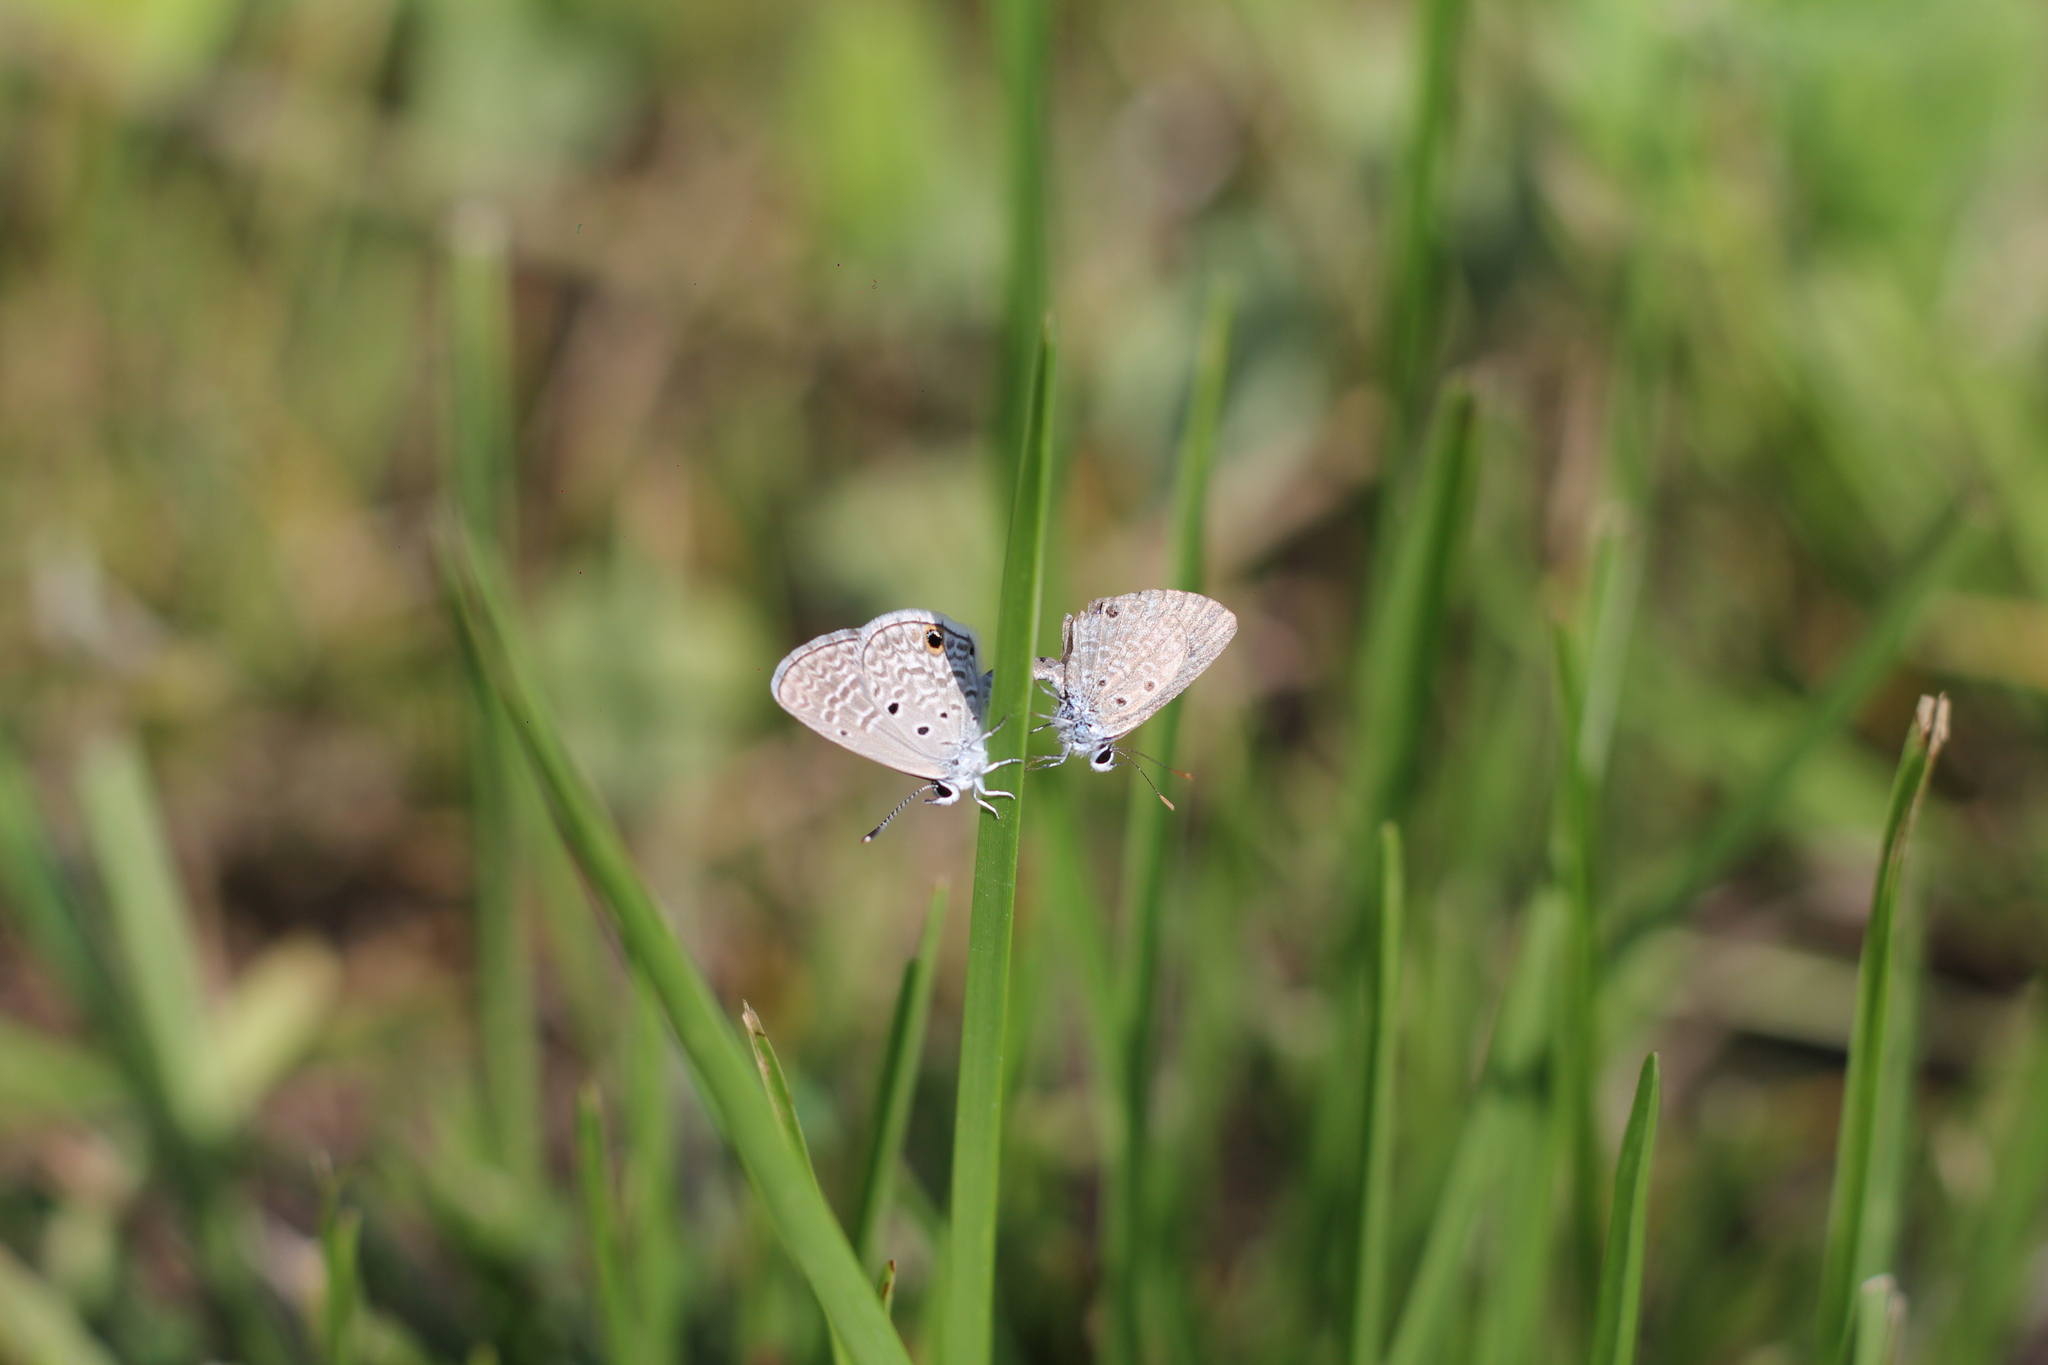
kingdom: Animalia
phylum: Arthropoda
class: Insecta
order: Lepidoptera
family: Lycaenidae
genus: Hemiargus
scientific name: Hemiargus hanno
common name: Common blue
